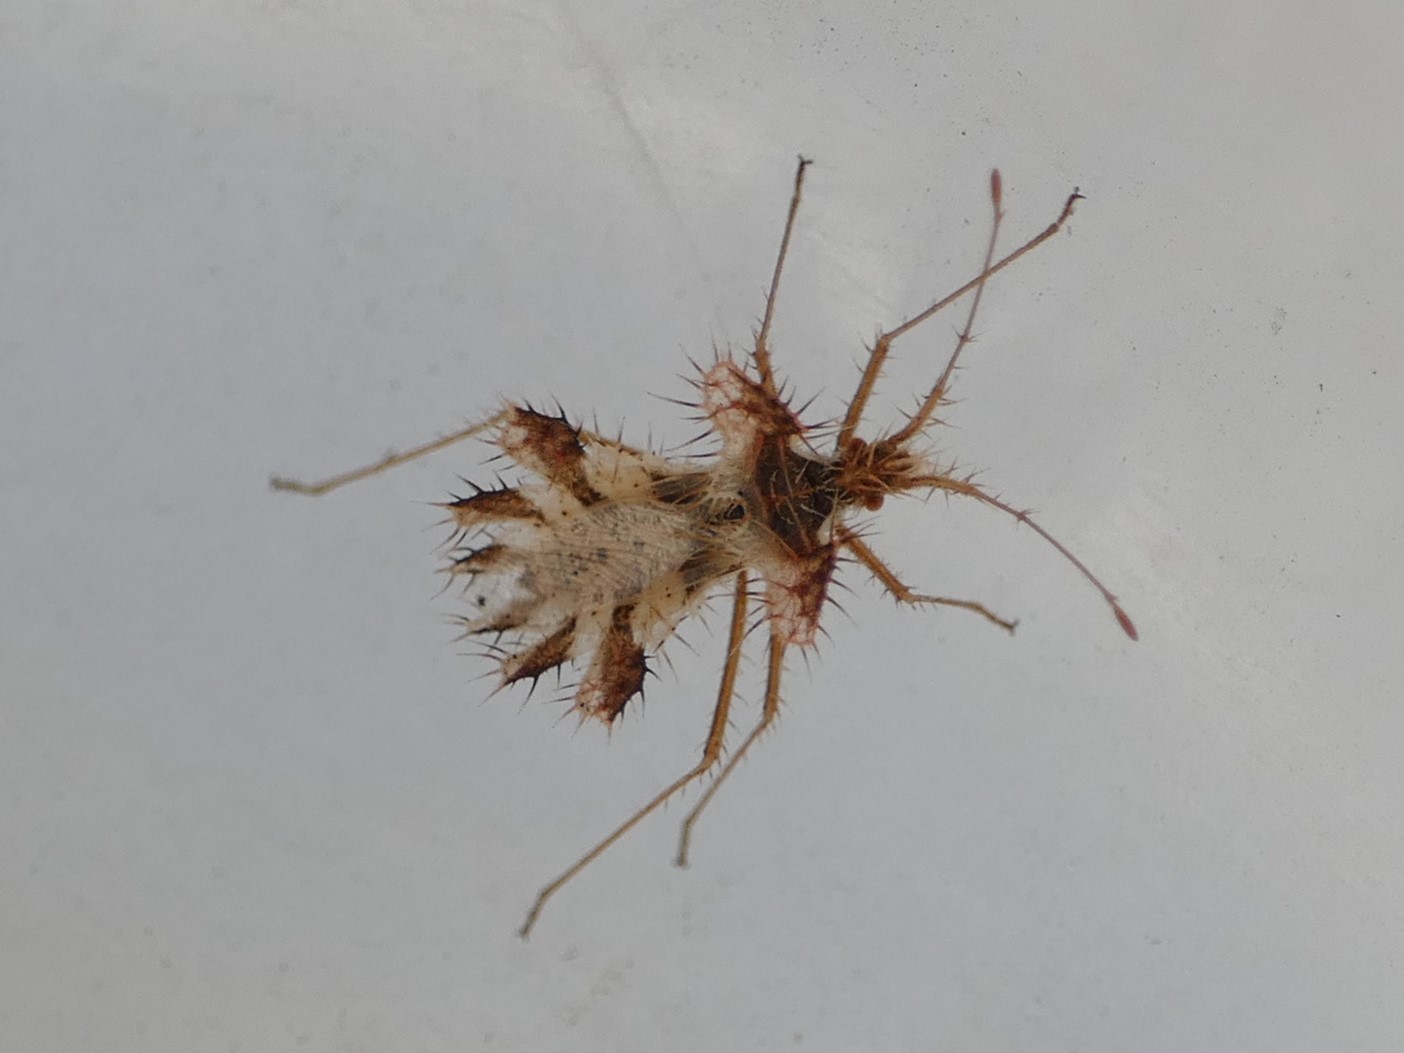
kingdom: Animalia
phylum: Arthropoda
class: Insecta
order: Hemiptera
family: Coreidae
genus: Phyllomorpha
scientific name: Phyllomorpha laciniata
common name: Golden egg bug
